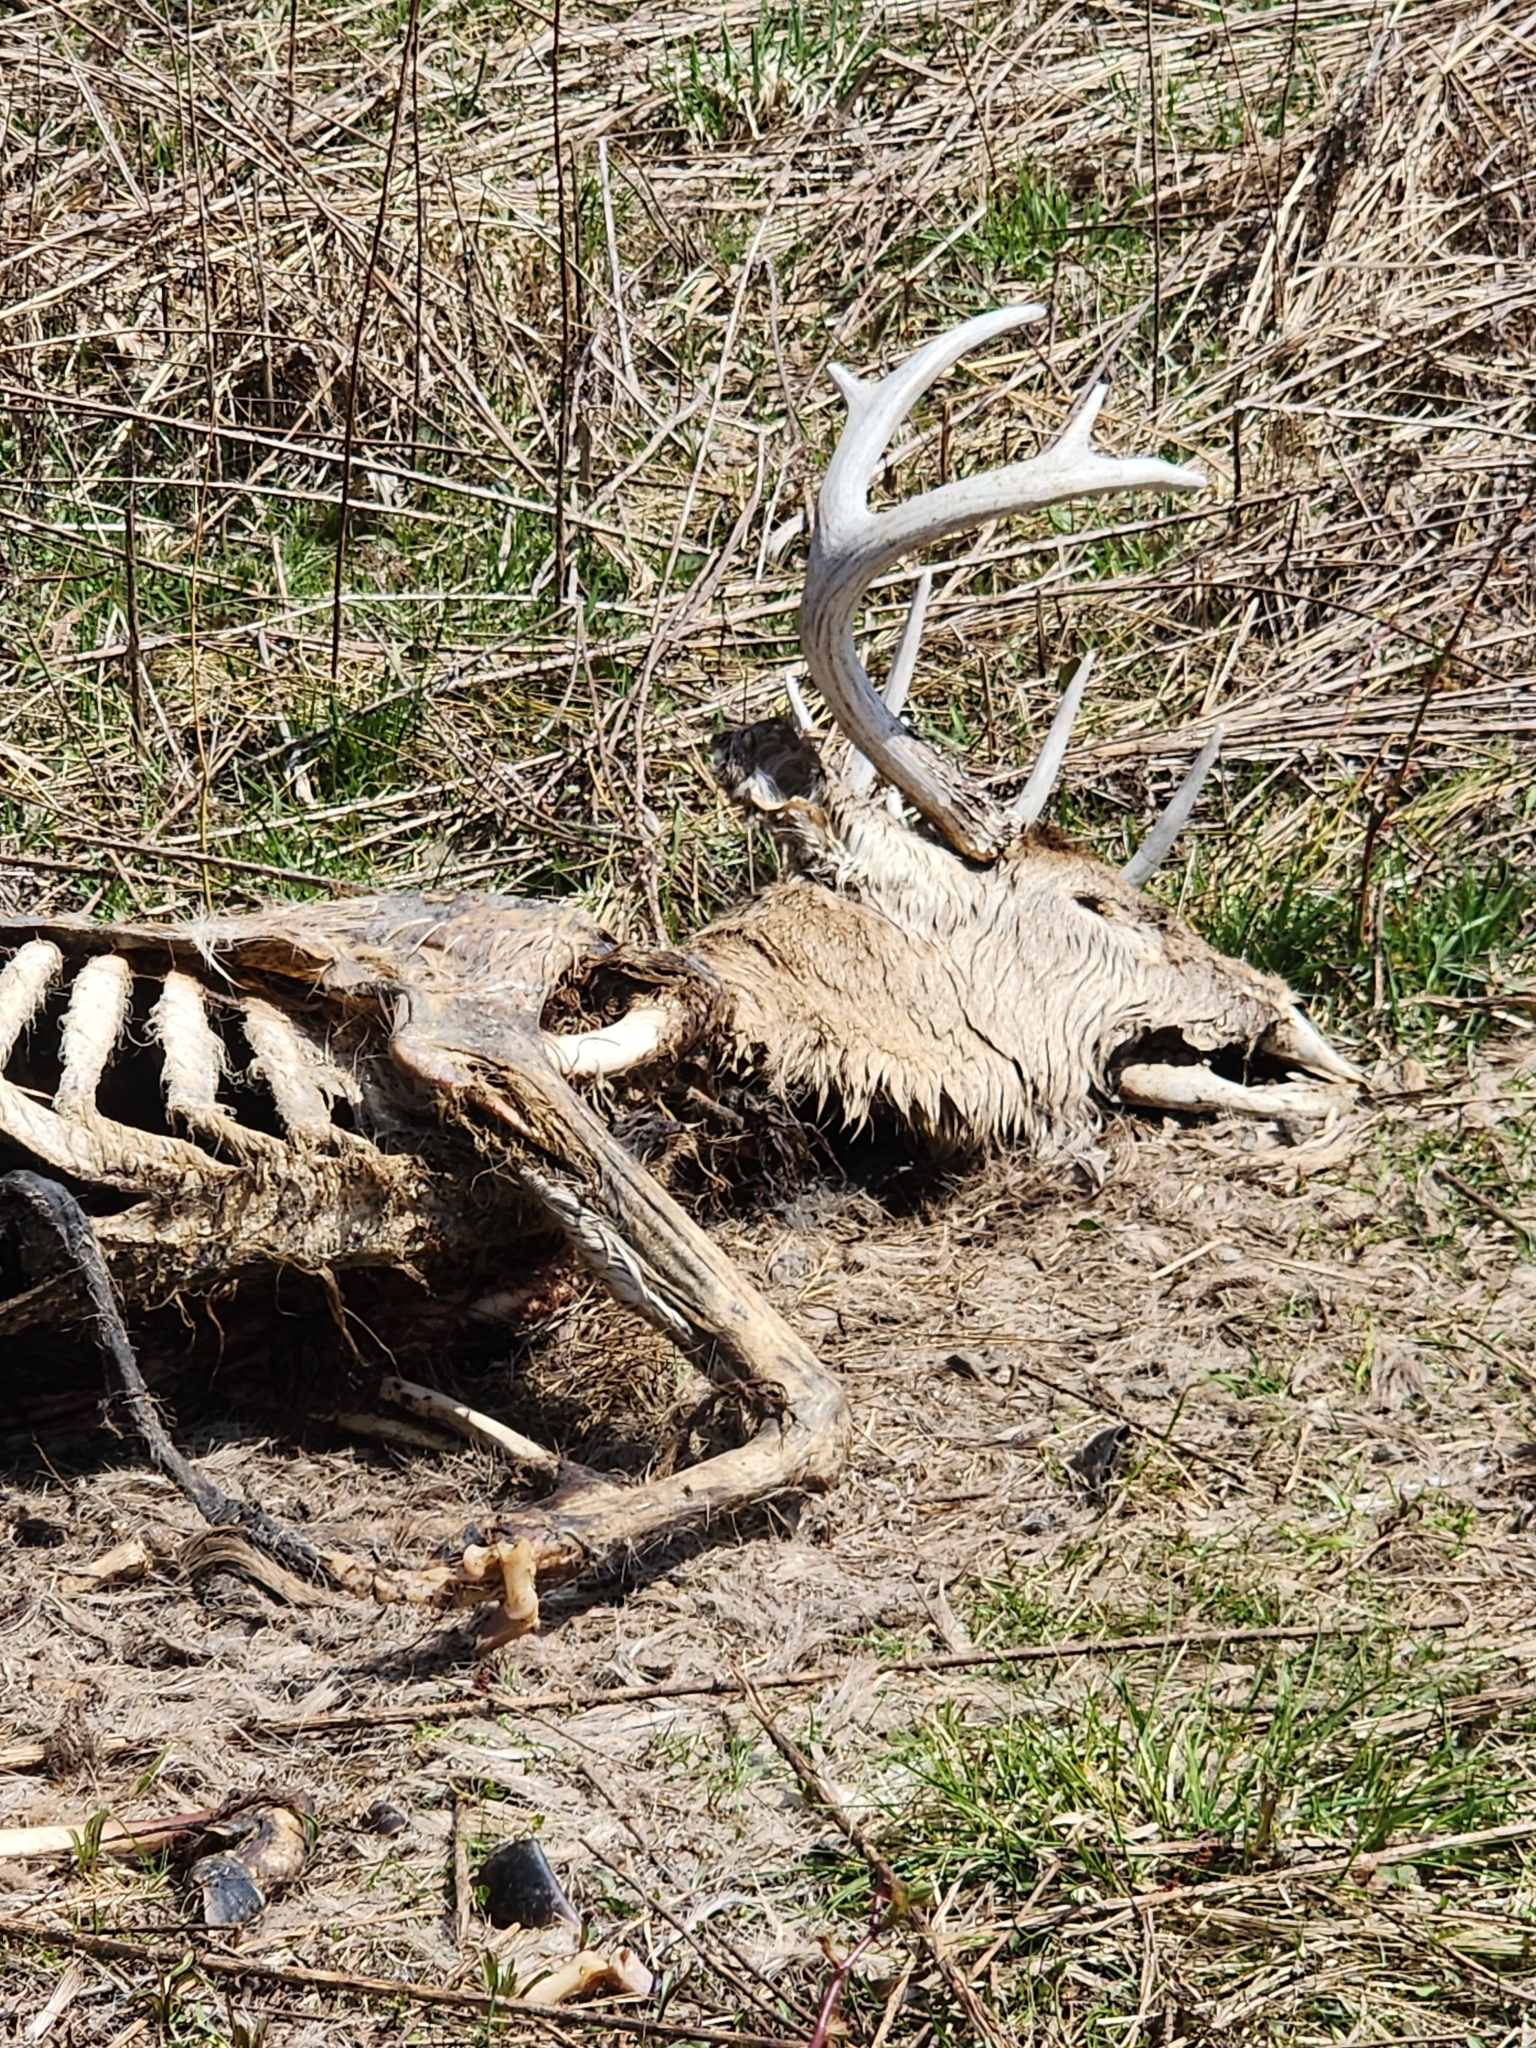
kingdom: Animalia
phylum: Chordata
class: Mammalia
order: Artiodactyla
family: Cervidae
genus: Odocoileus
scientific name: Odocoileus virginianus
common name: White-tailed deer
